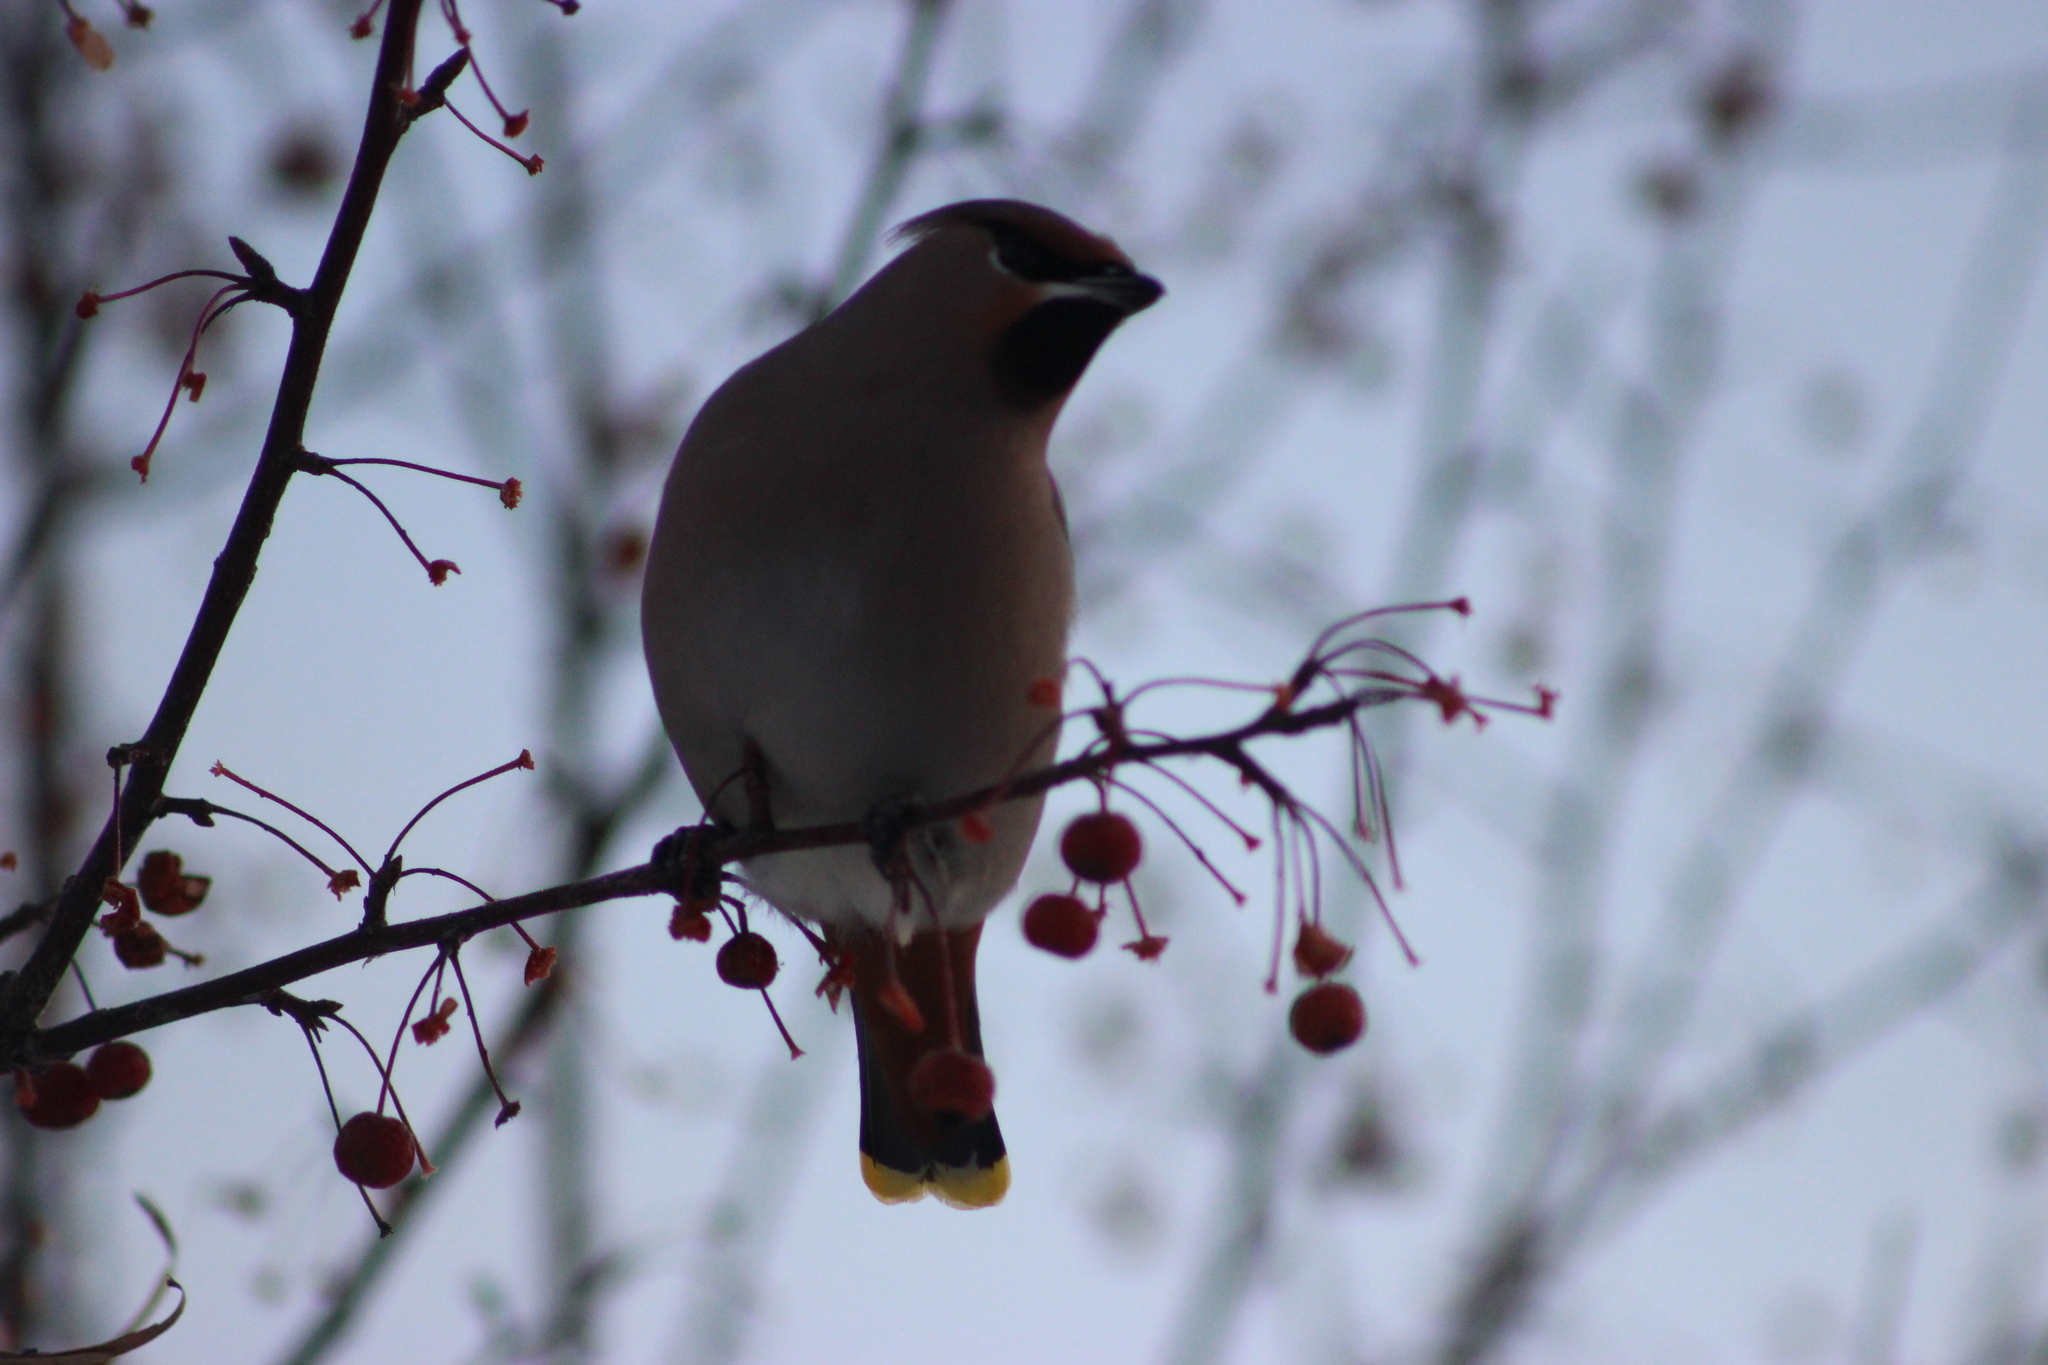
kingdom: Animalia
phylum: Chordata
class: Aves
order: Passeriformes
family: Bombycillidae
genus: Bombycilla
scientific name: Bombycilla garrulus
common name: Bohemian waxwing
